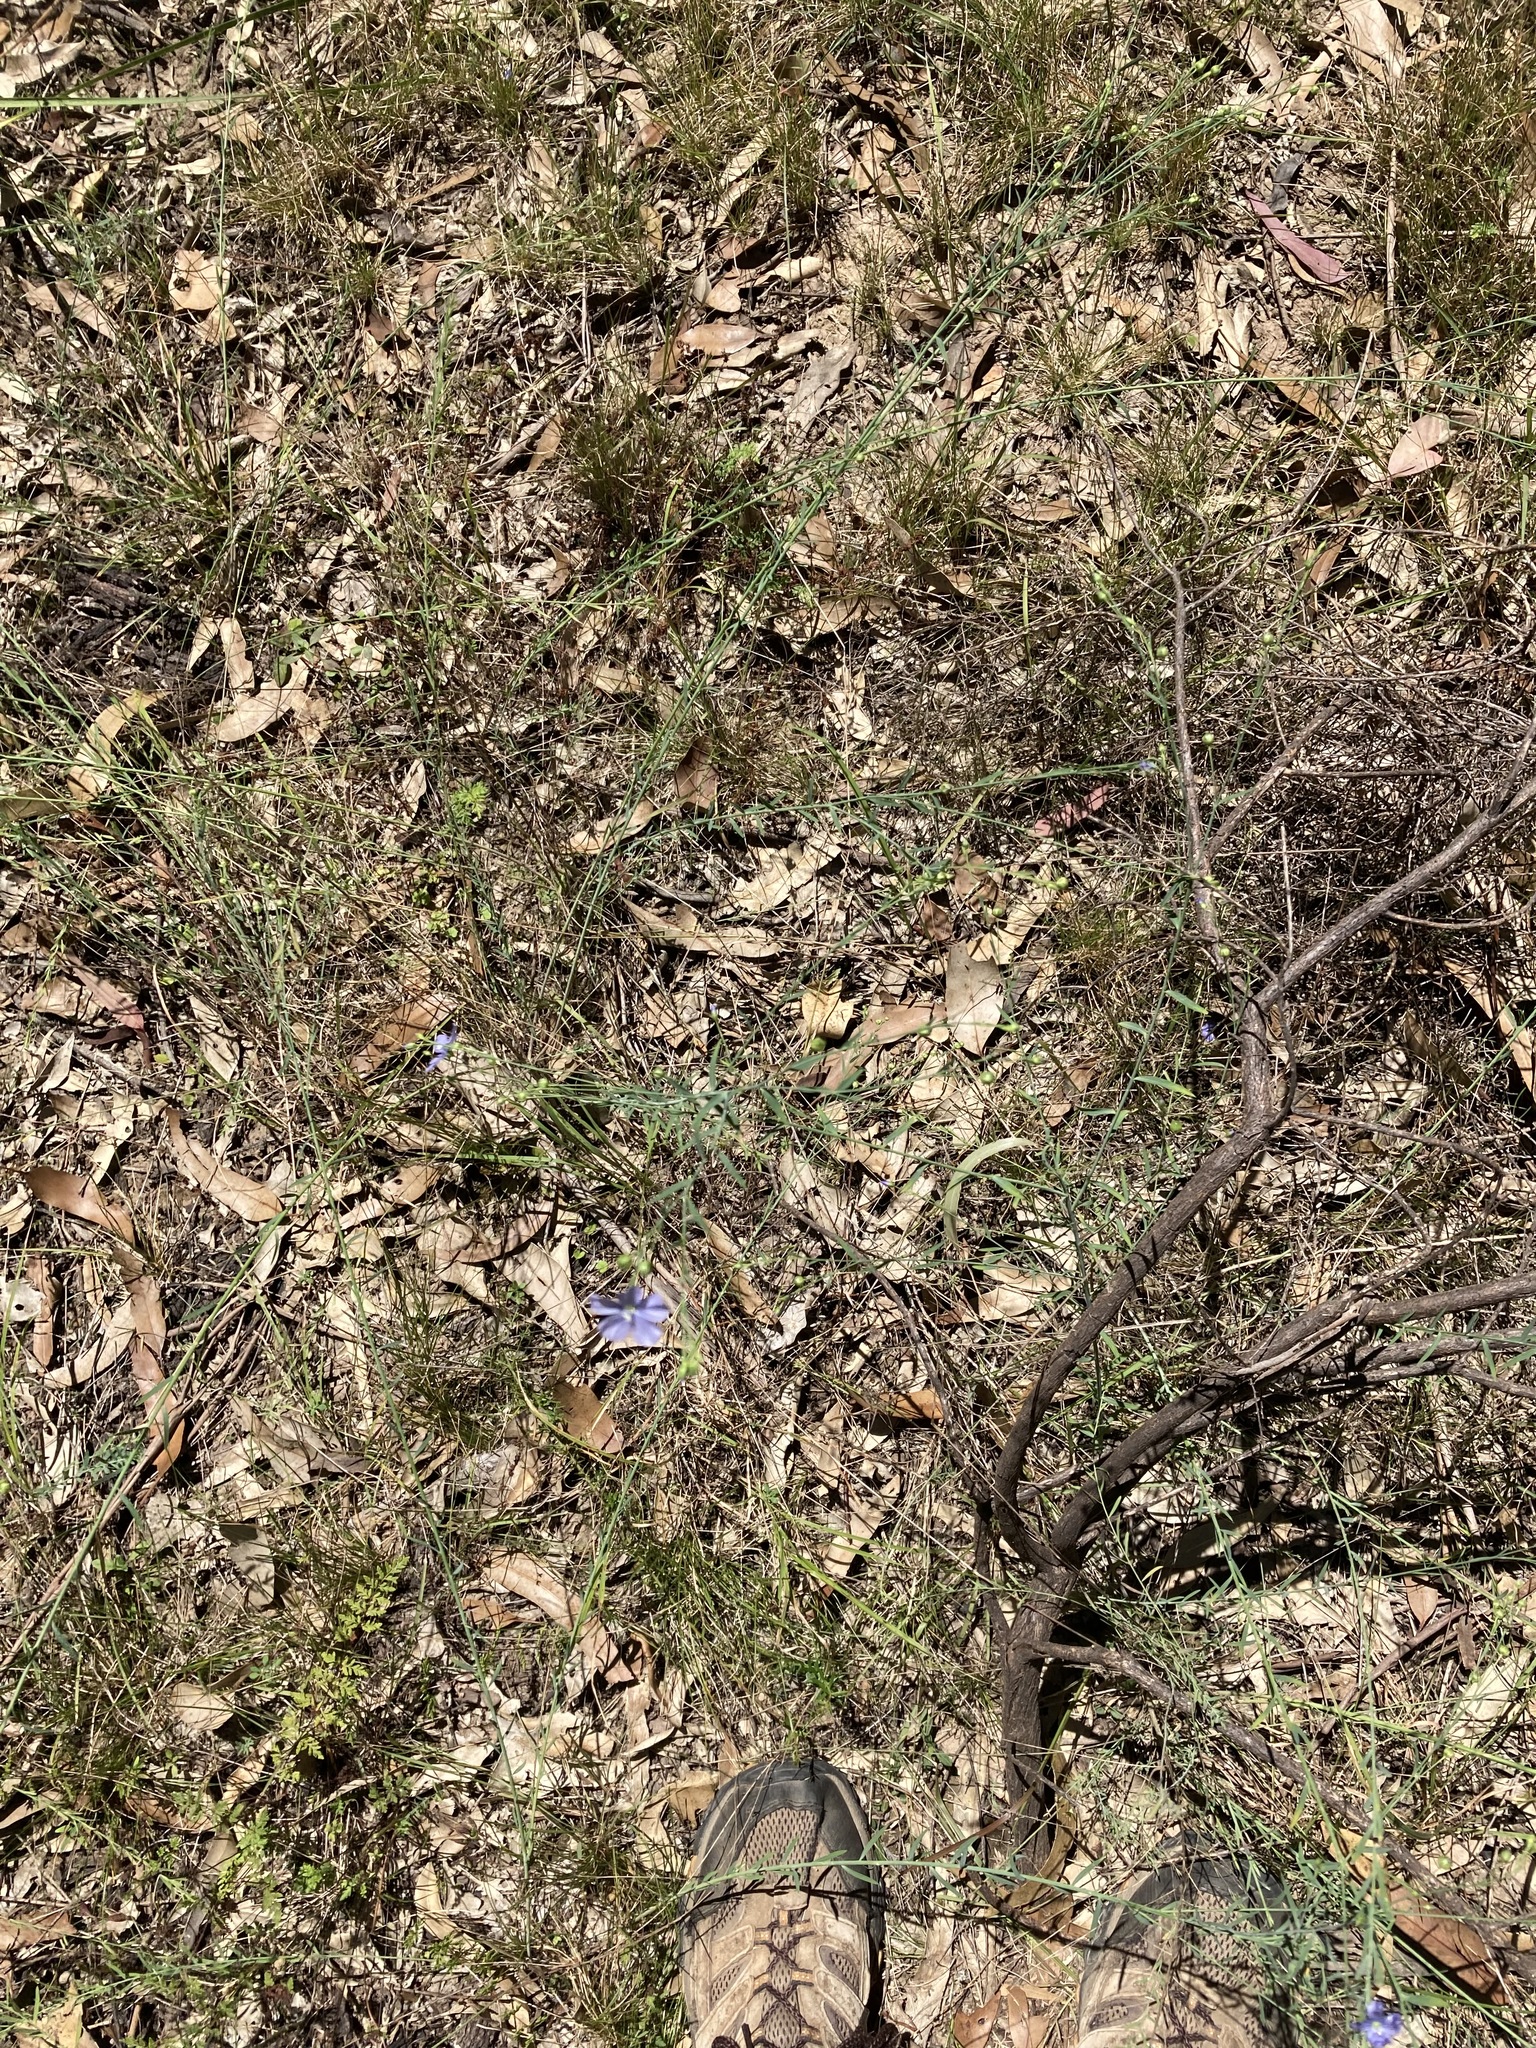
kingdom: Plantae
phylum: Tracheophyta
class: Magnoliopsida
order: Malpighiales
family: Linaceae
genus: Linum
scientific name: Linum marginale
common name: Wild flax
